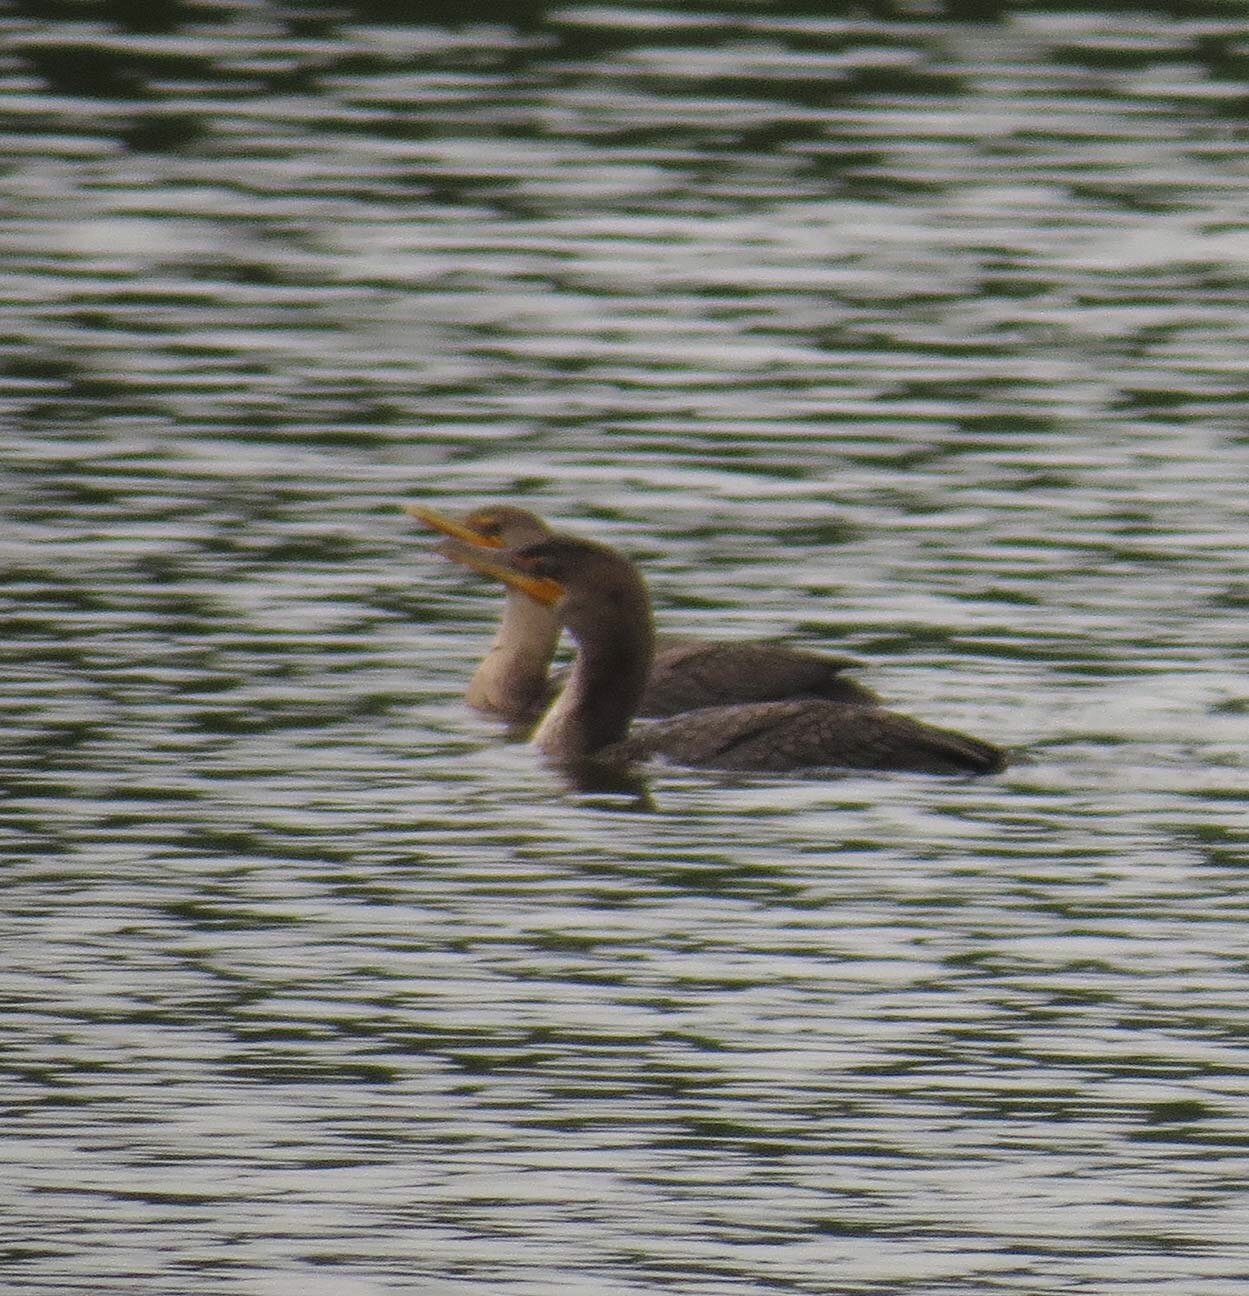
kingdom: Animalia
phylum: Chordata
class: Aves
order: Suliformes
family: Phalacrocoracidae
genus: Phalacrocorax
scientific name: Phalacrocorax auritus
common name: Double-crested cormorant
